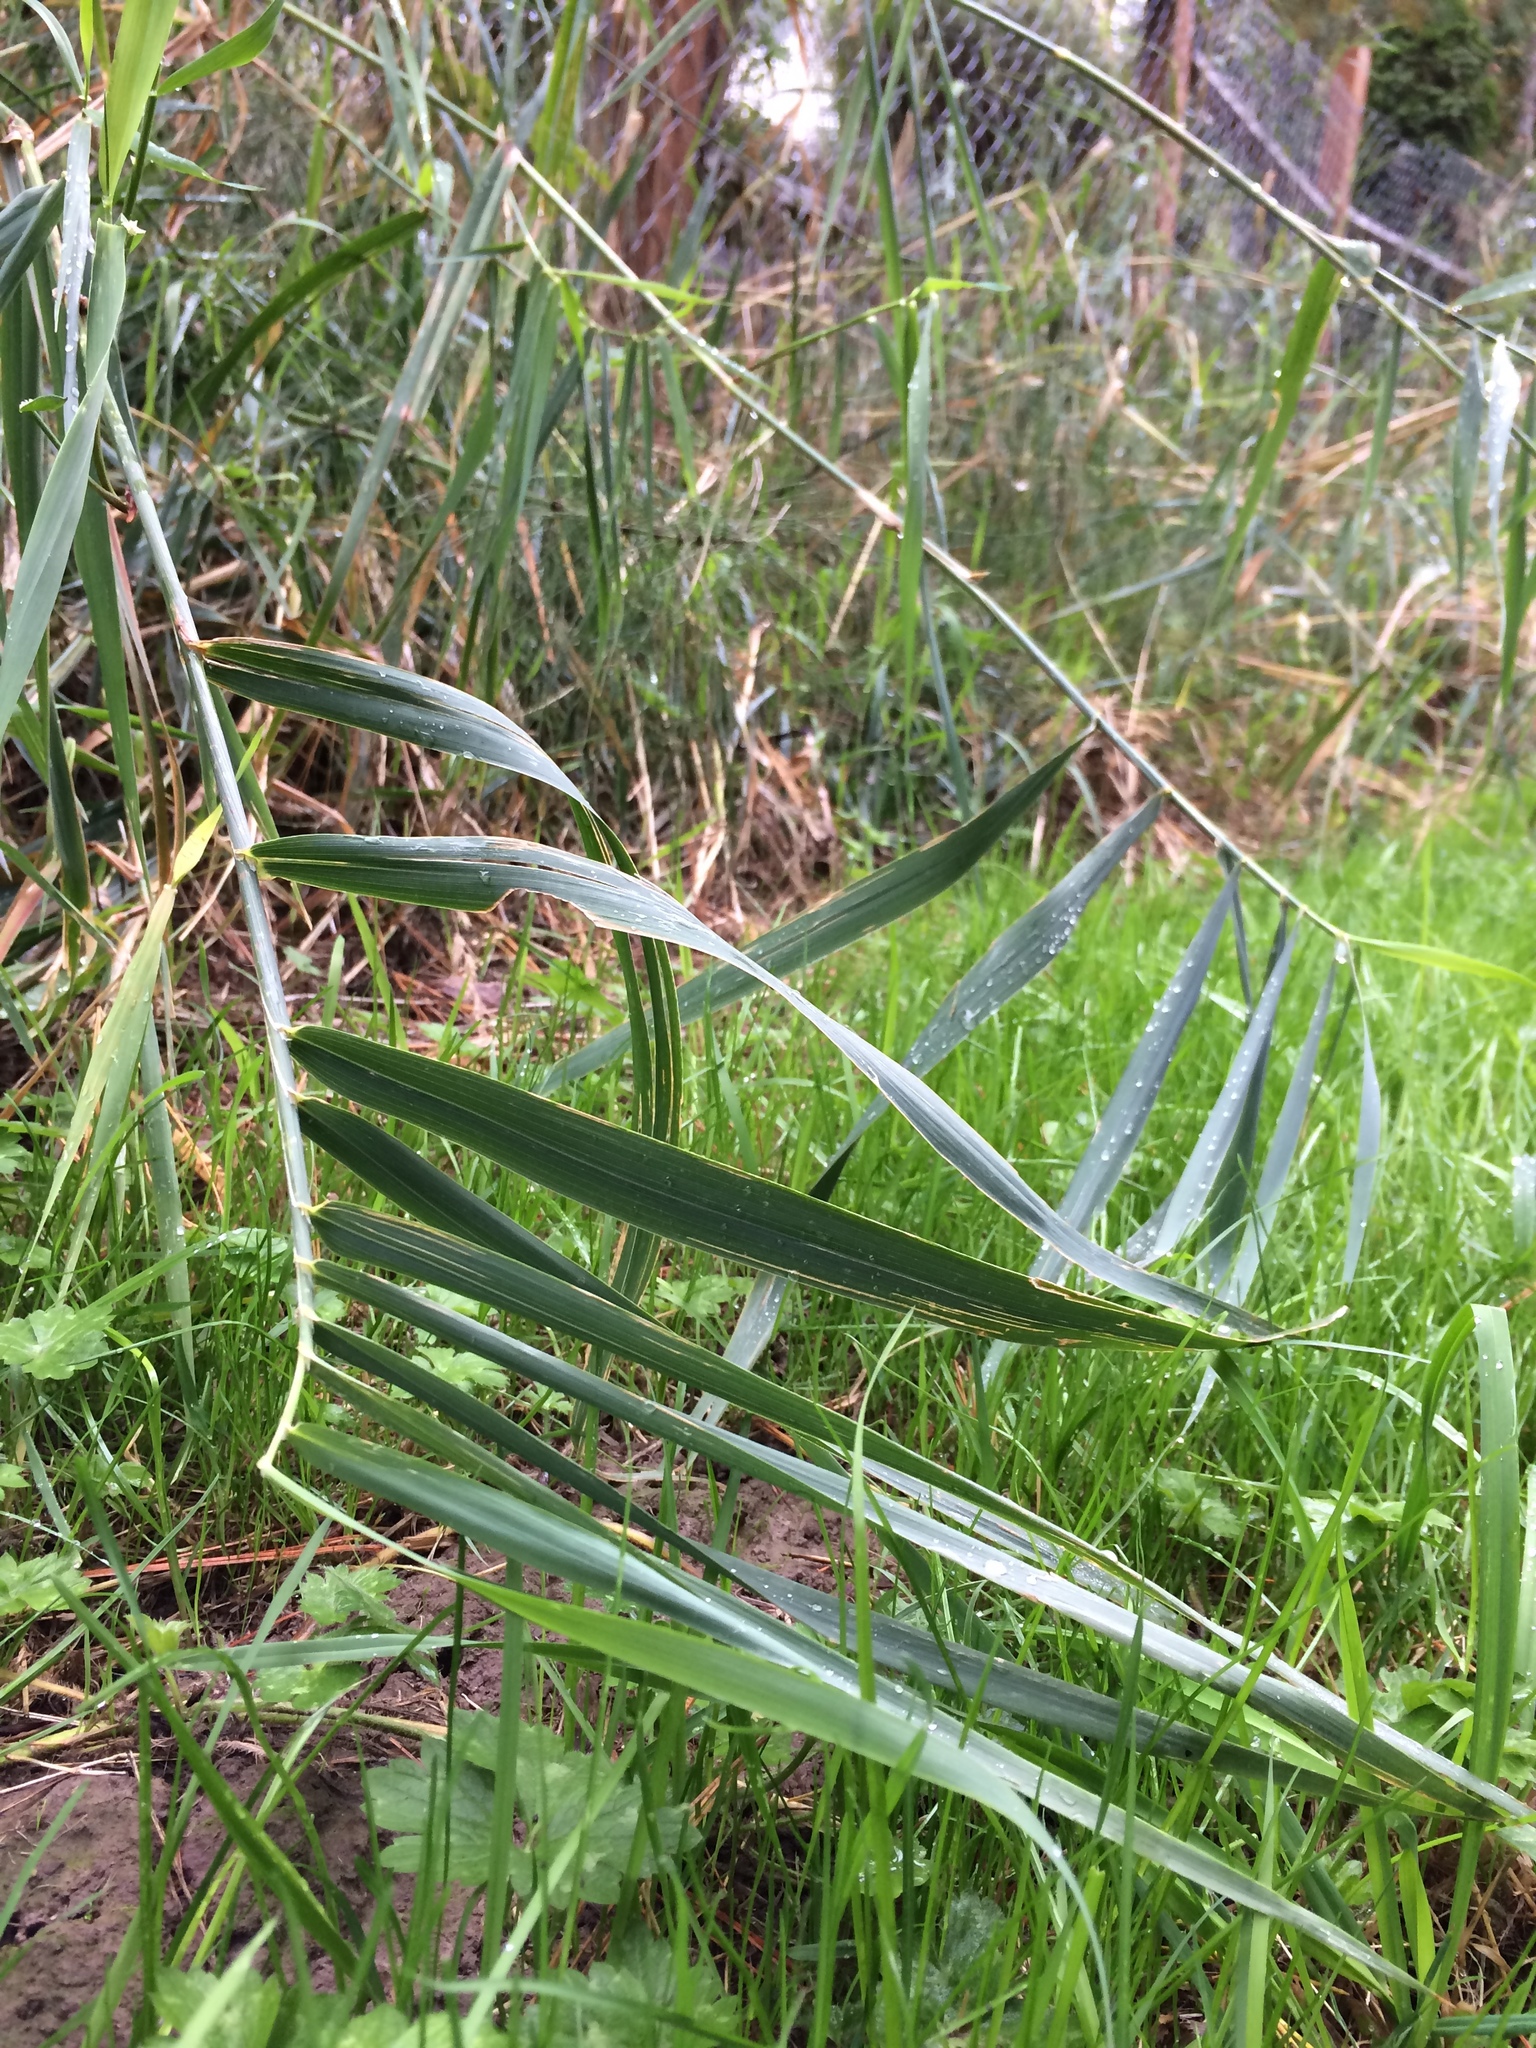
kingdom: Plantae
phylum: Tracheophyta
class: Liliopsida
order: Poales
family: Poaceae
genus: Phalaris
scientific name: Phalaris arundinacea
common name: Reed canary-grass
